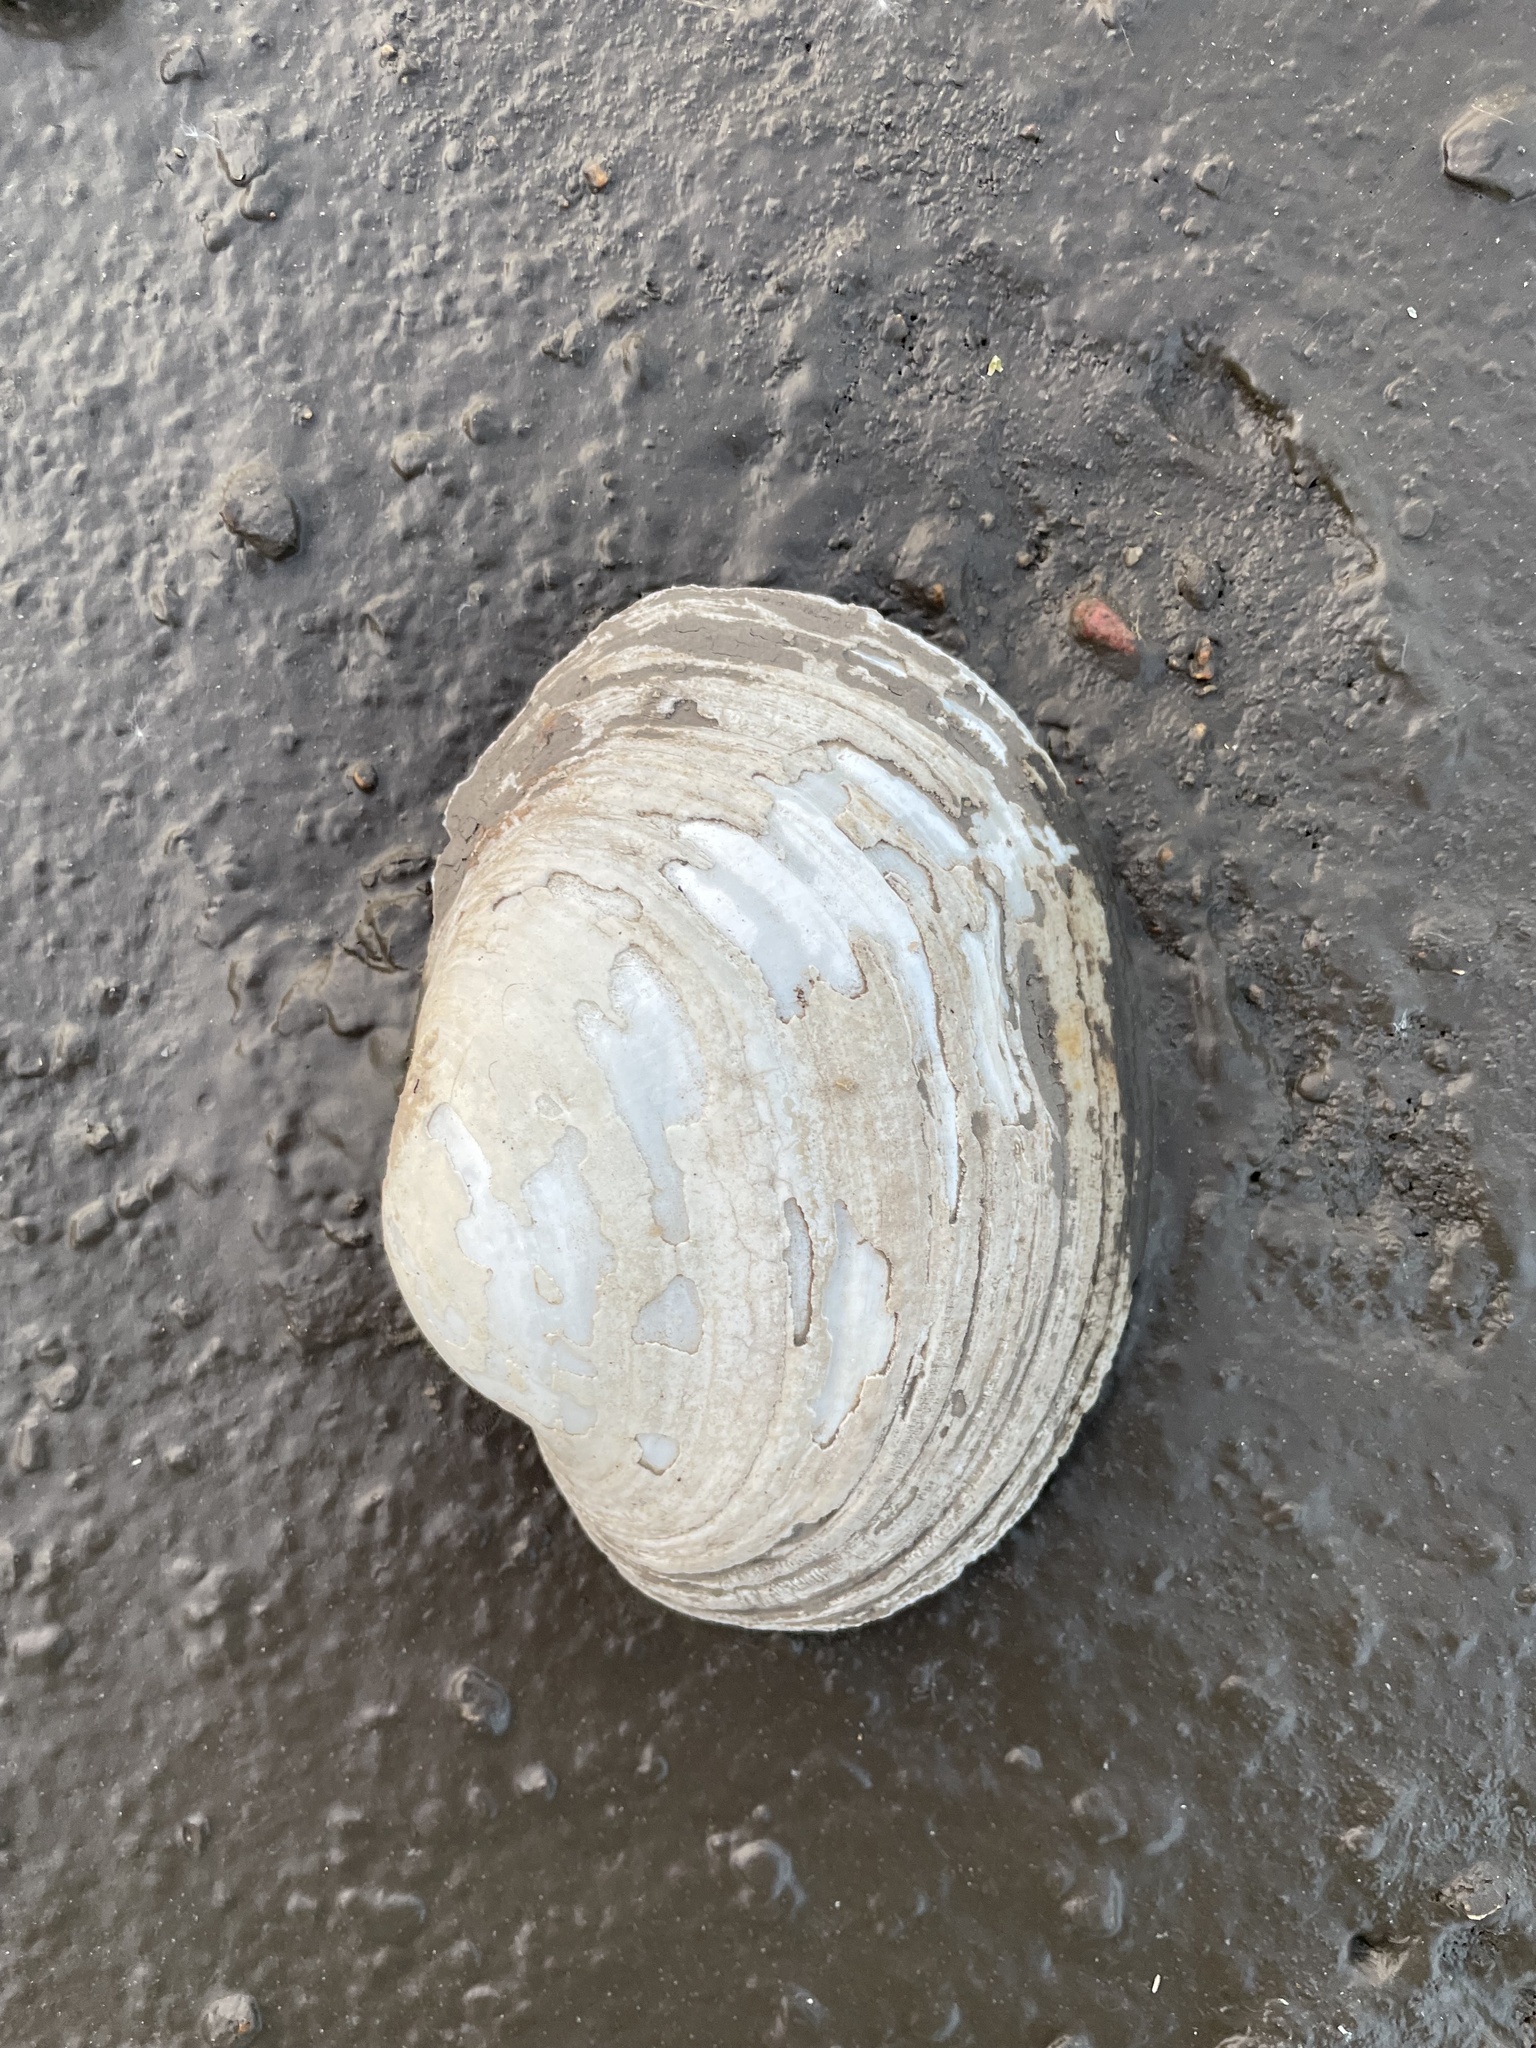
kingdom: Animalia
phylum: Mollusca
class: Bivalvia
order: Unionida
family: Unionidae
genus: Lampsilis
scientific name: Lampsilis cardium
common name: Plain pocketbook
